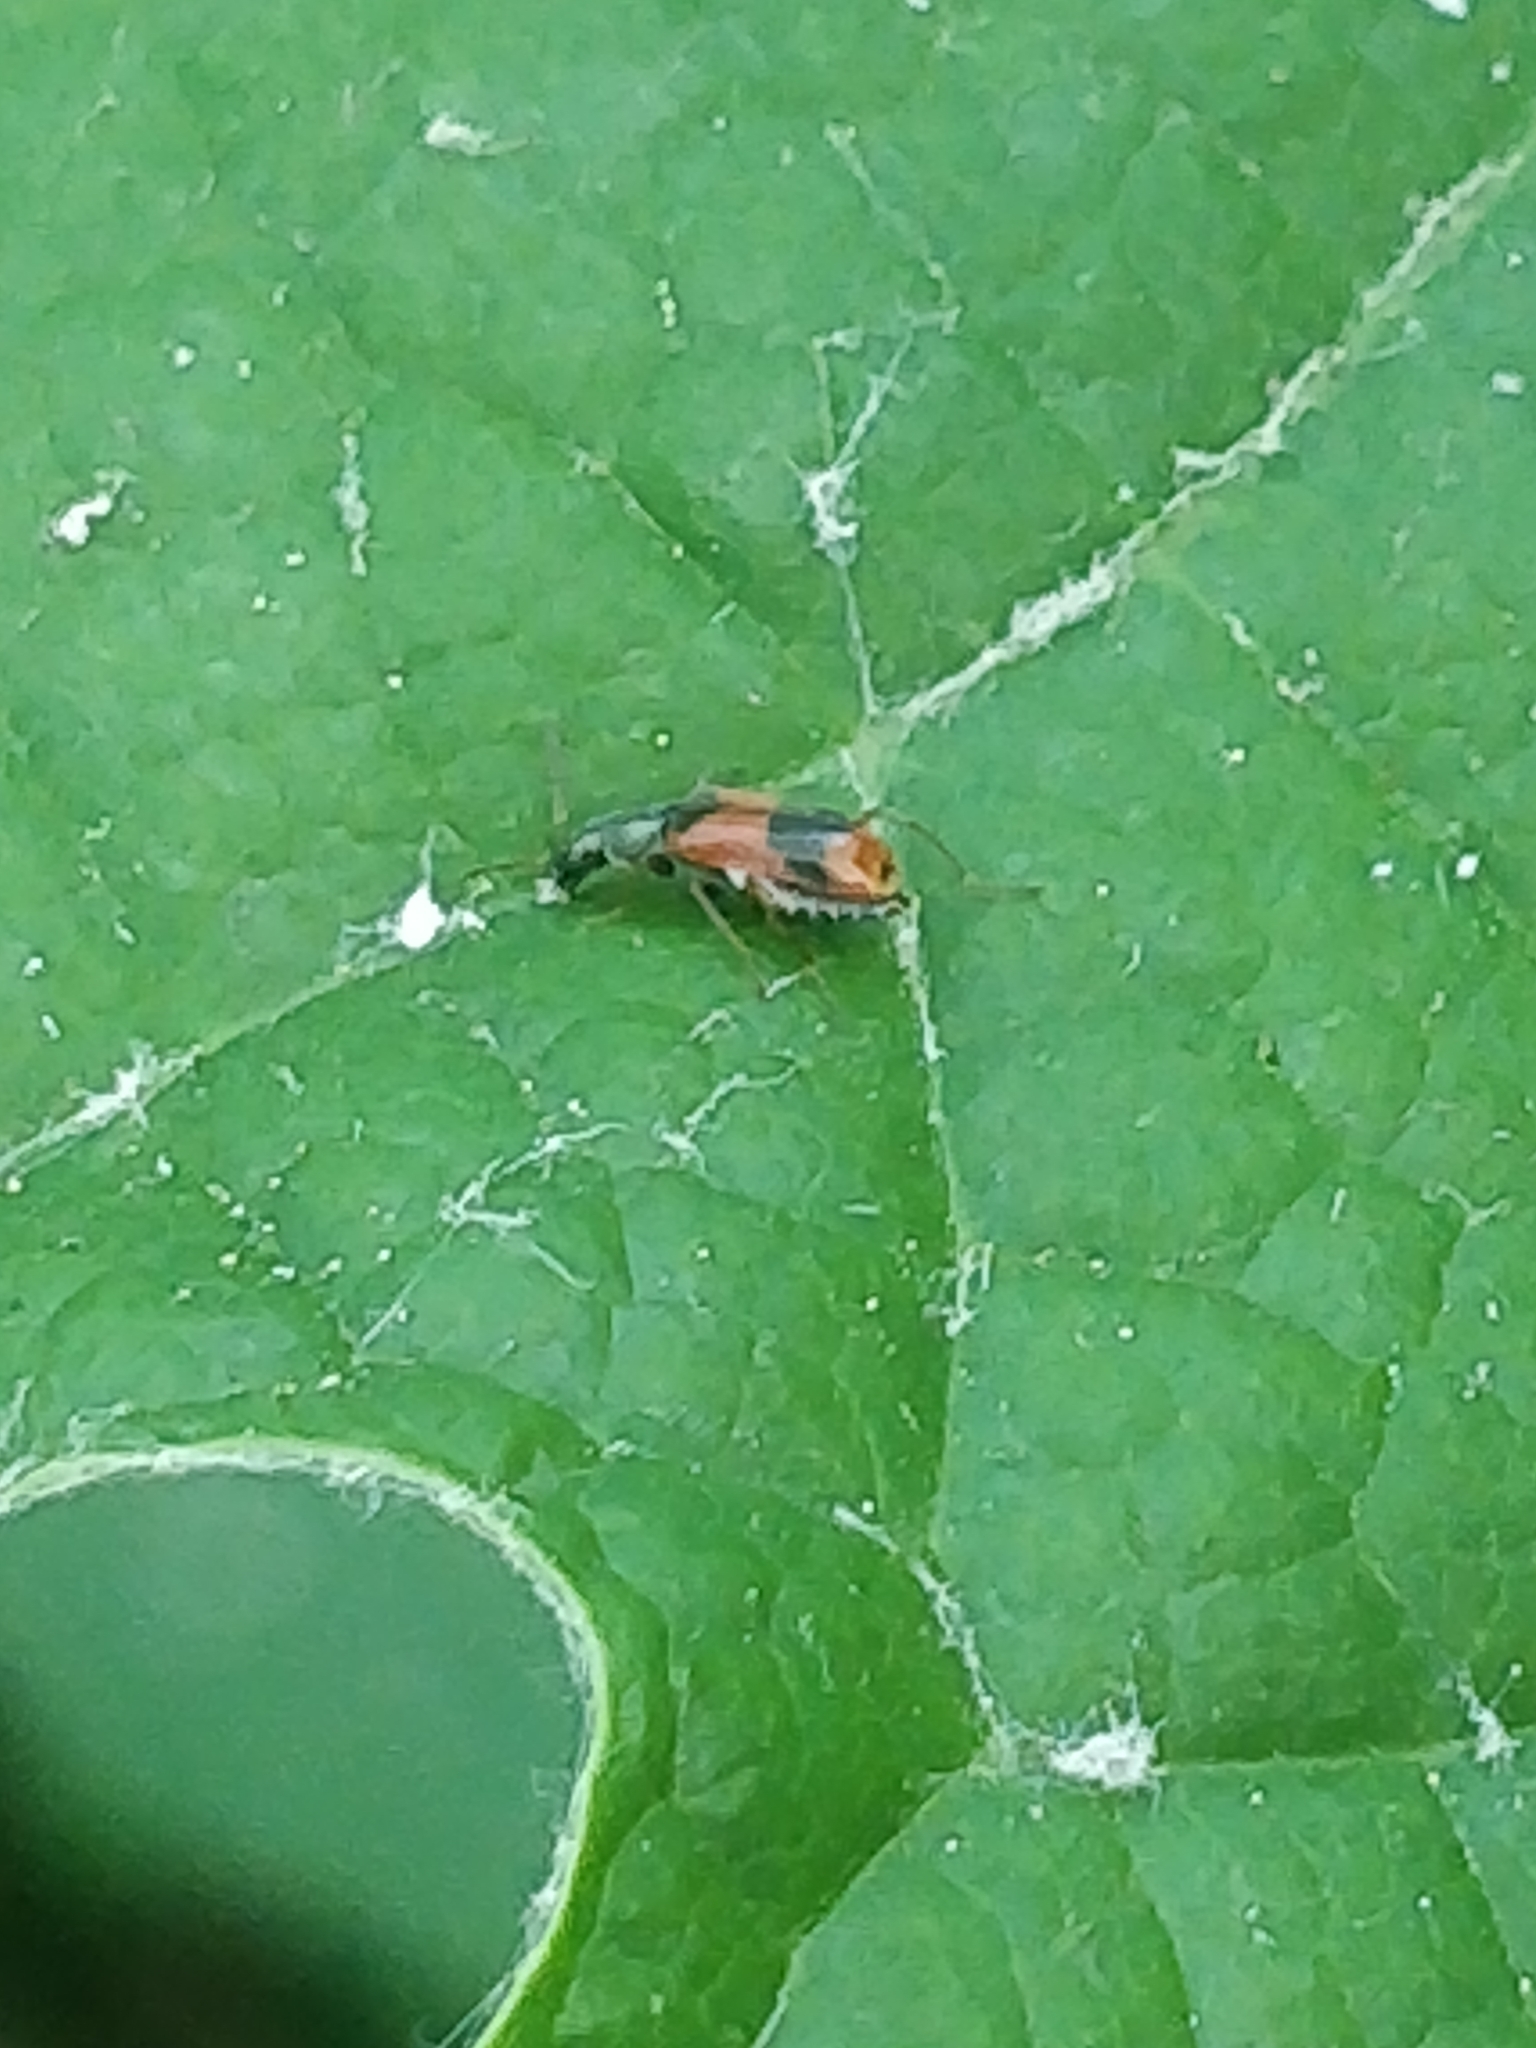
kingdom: Animalia
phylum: Arthropoda
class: Insecta
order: Coleoptera
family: Melyridae
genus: Anthocomus
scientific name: Anthocomus equestris
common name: Black-banded soft-winged flower beetle
